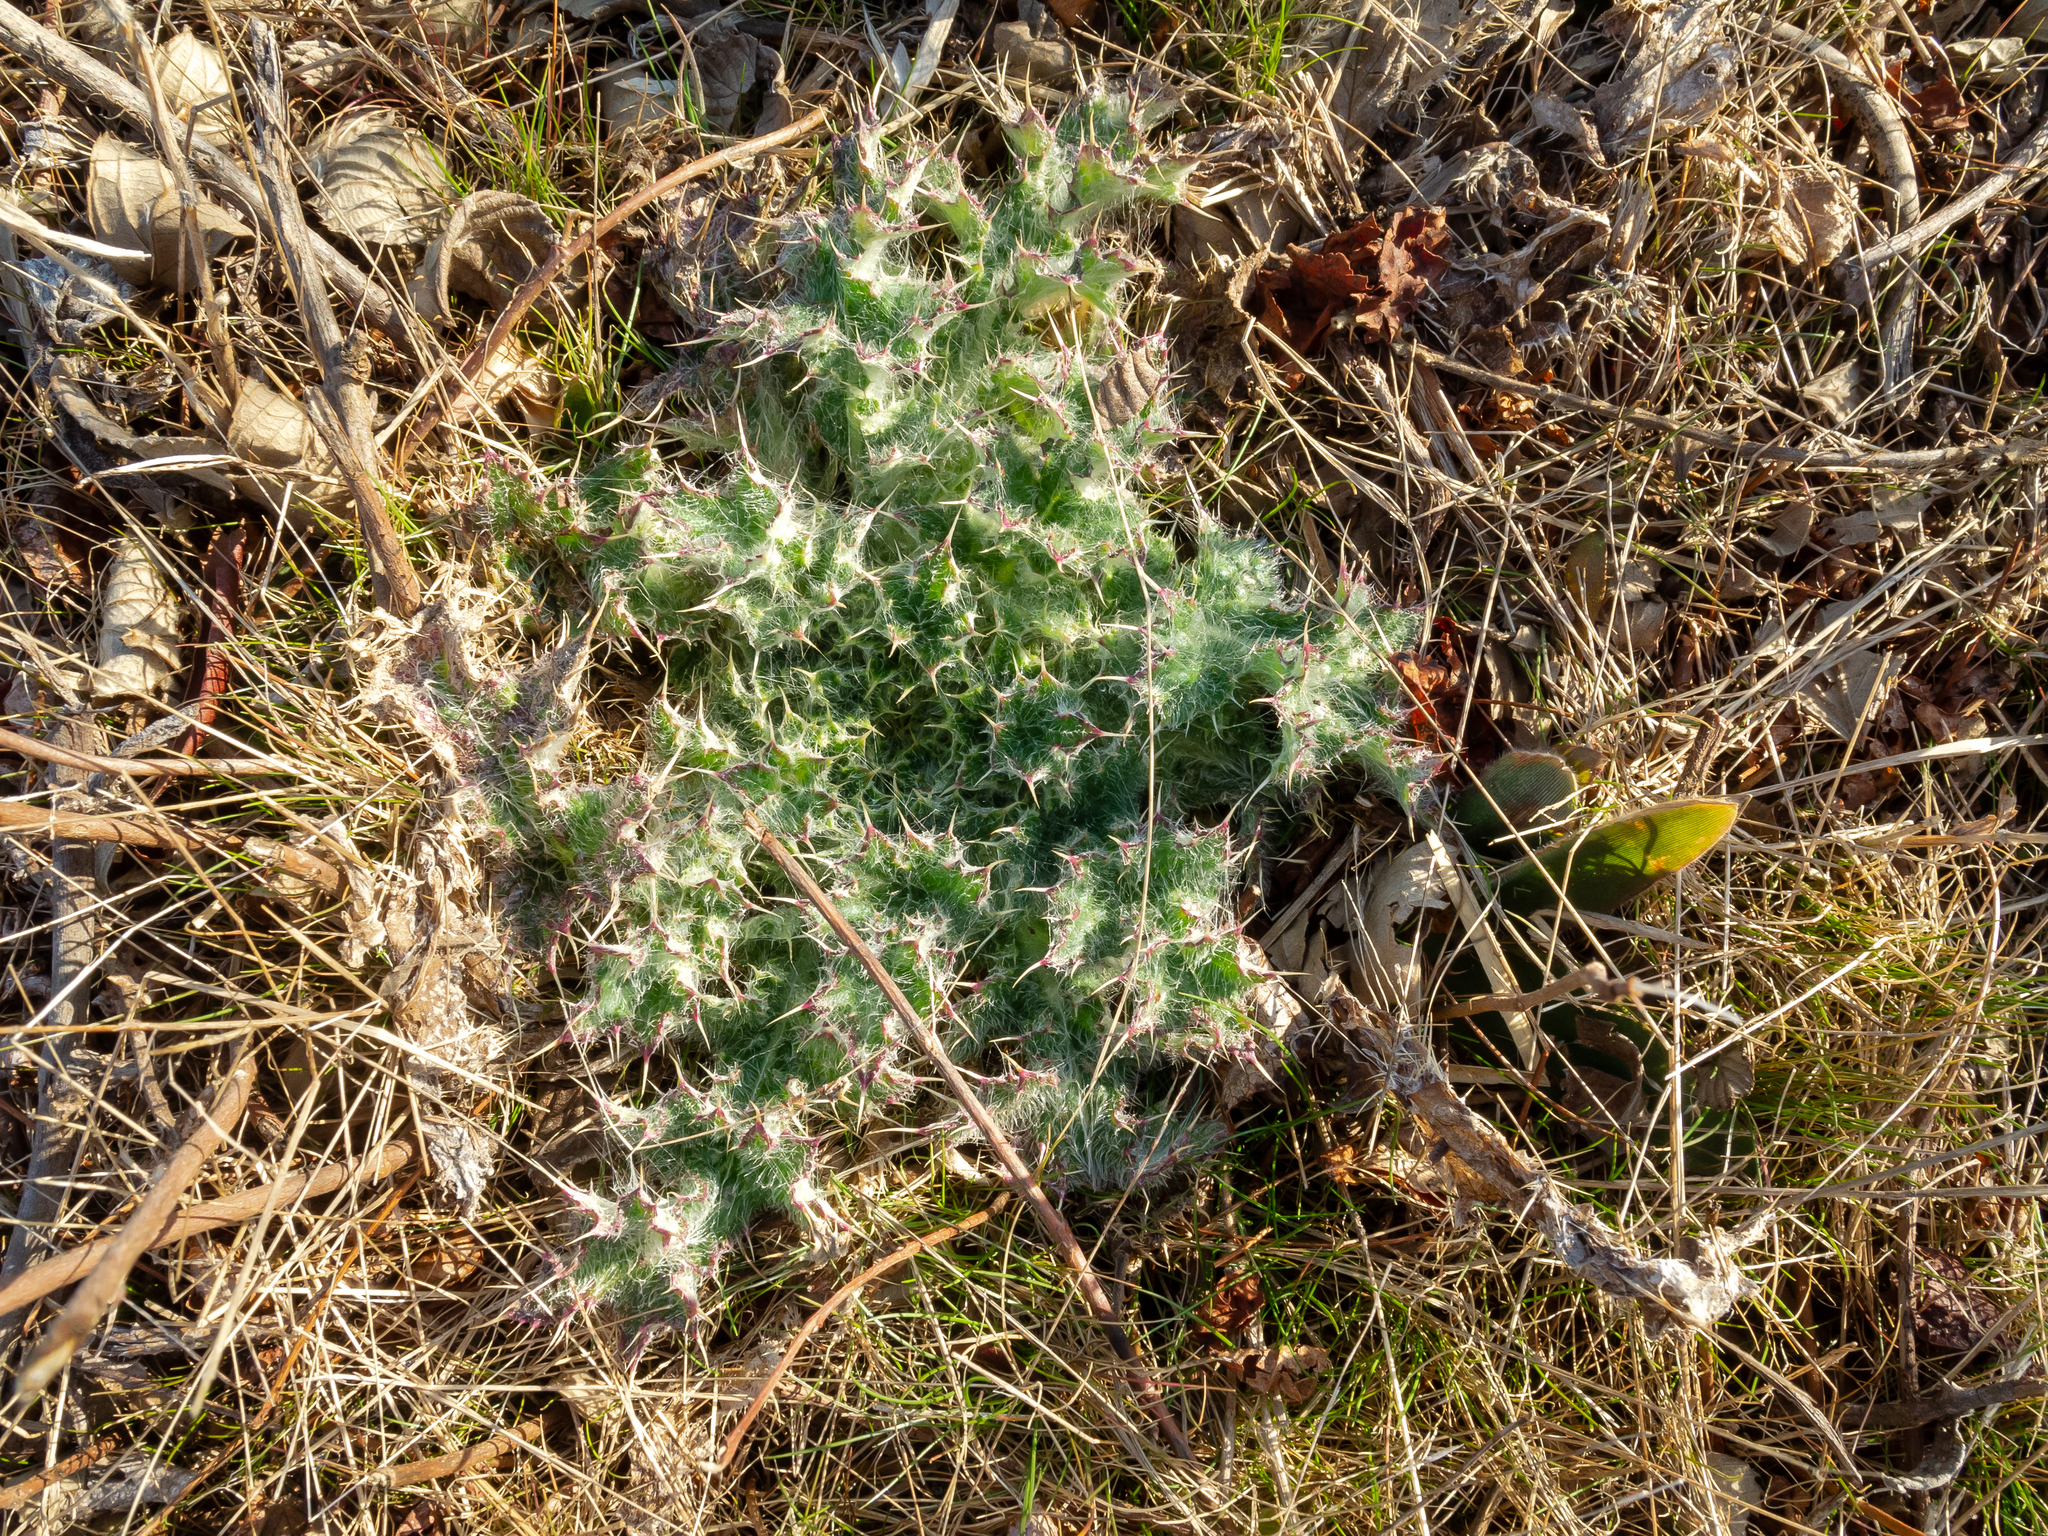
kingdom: Plantae
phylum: Tracheophyta
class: Magnoliopsida
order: Asterales
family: Asteraceae
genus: Cirsium
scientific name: Cirsium horridulum
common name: Bristly thistle
